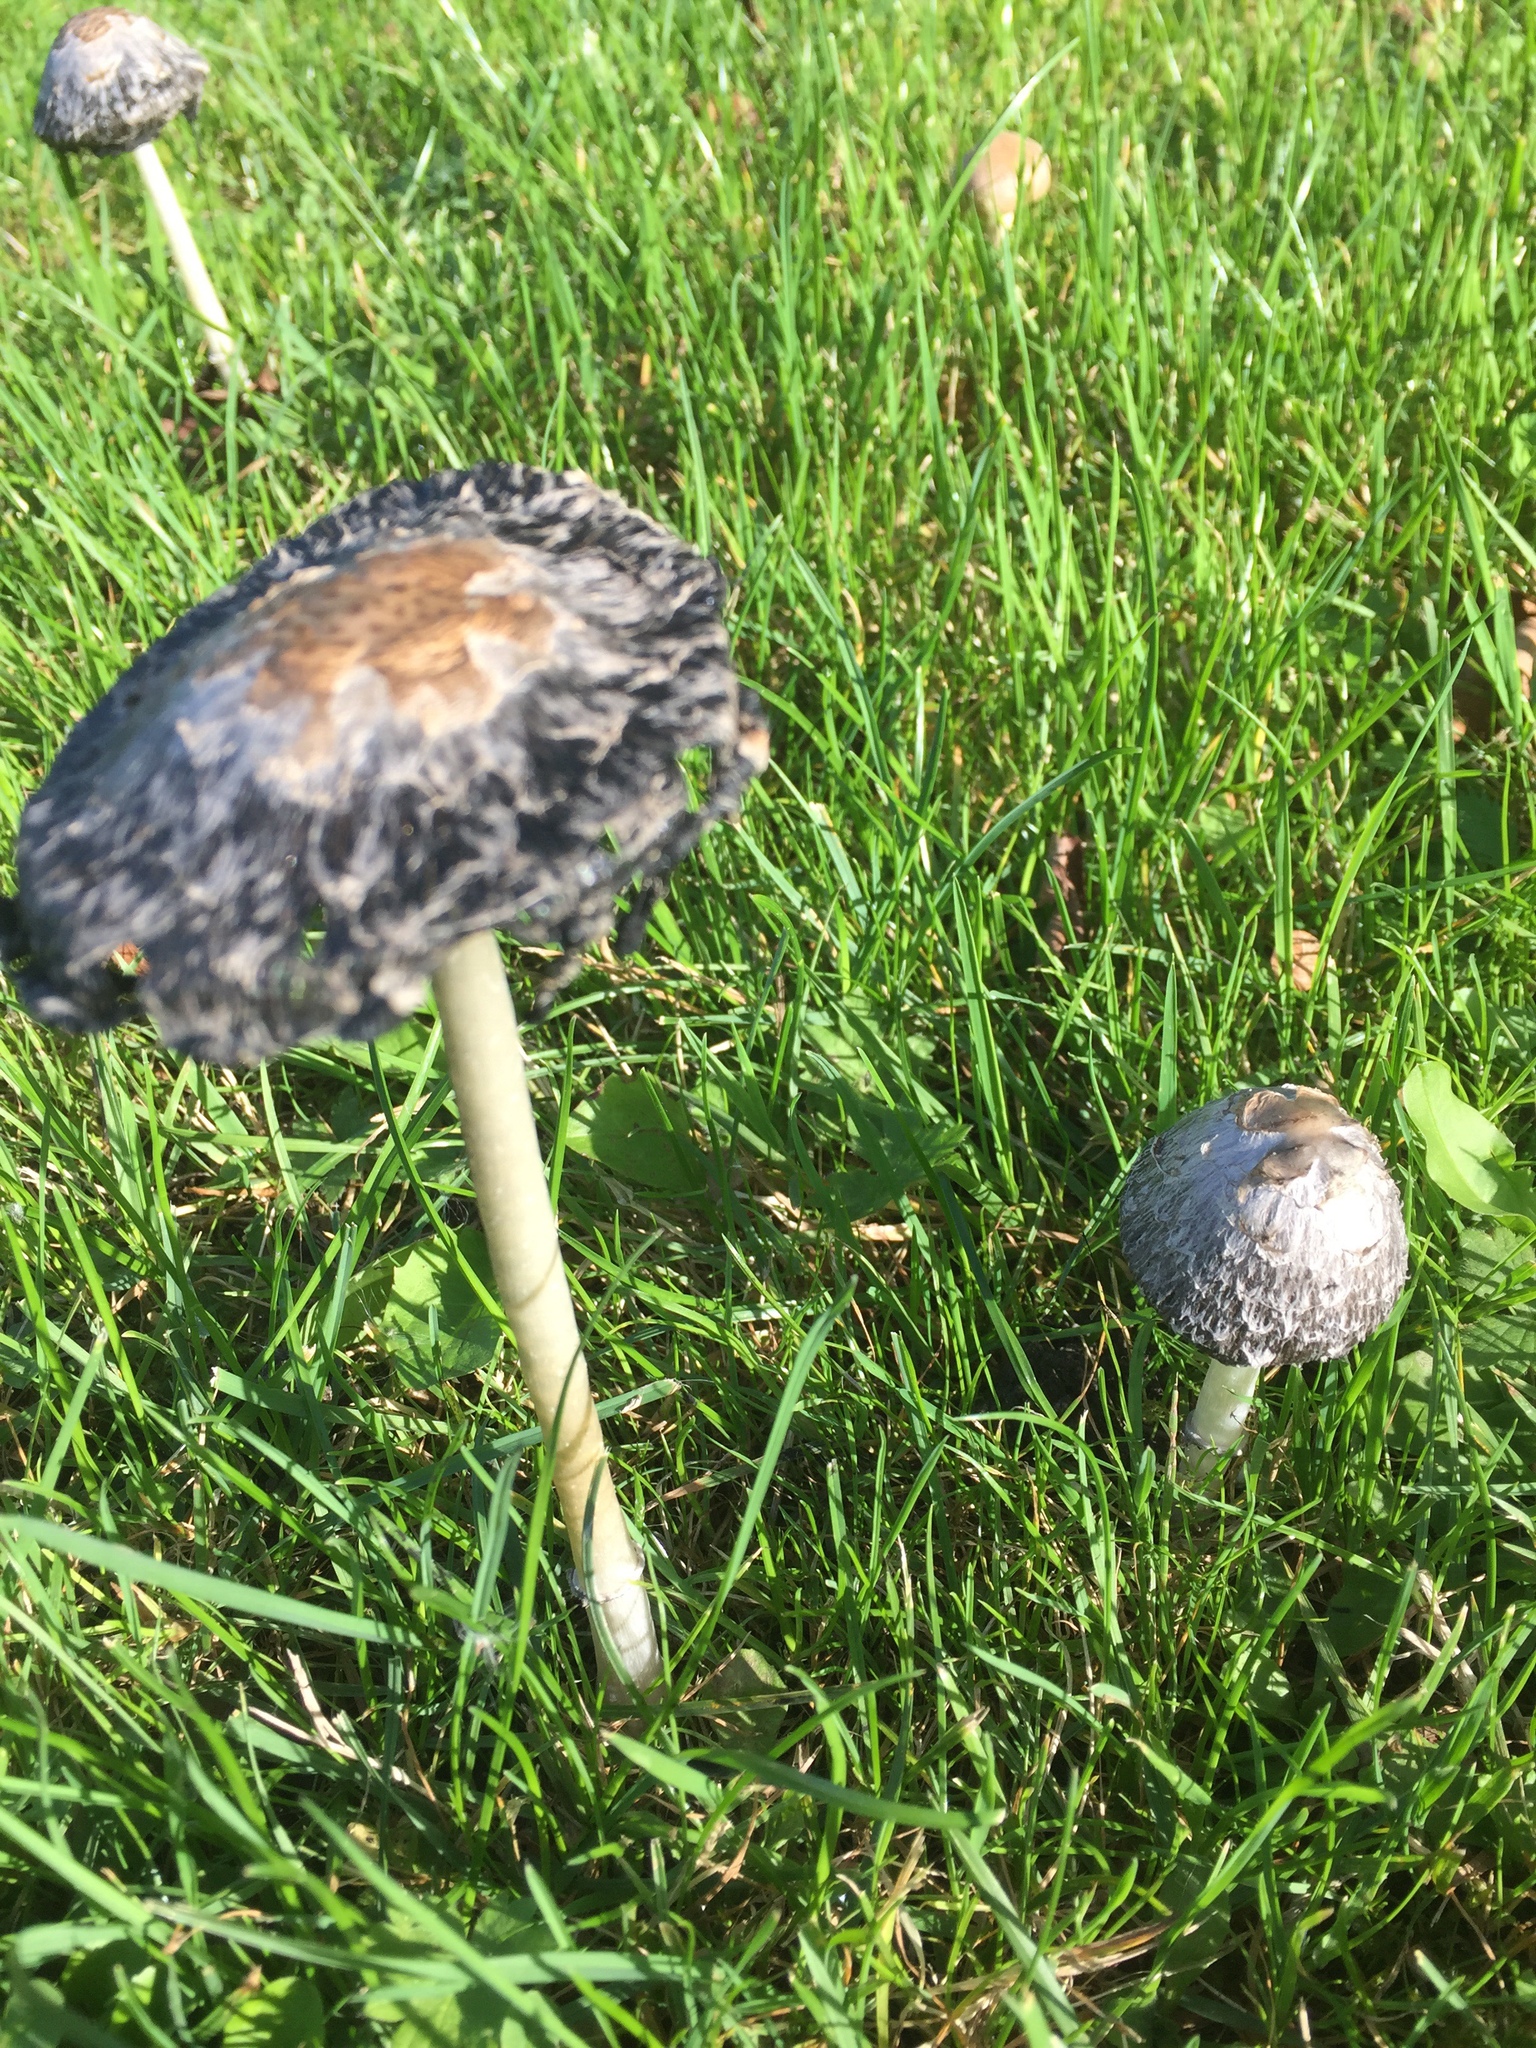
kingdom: Fungi
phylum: Basidiomycota
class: Agaricomycetes
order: Agaricales
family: Agaricaceae
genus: Coprinus
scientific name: Coprinus comatus
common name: Lawyer's wig
